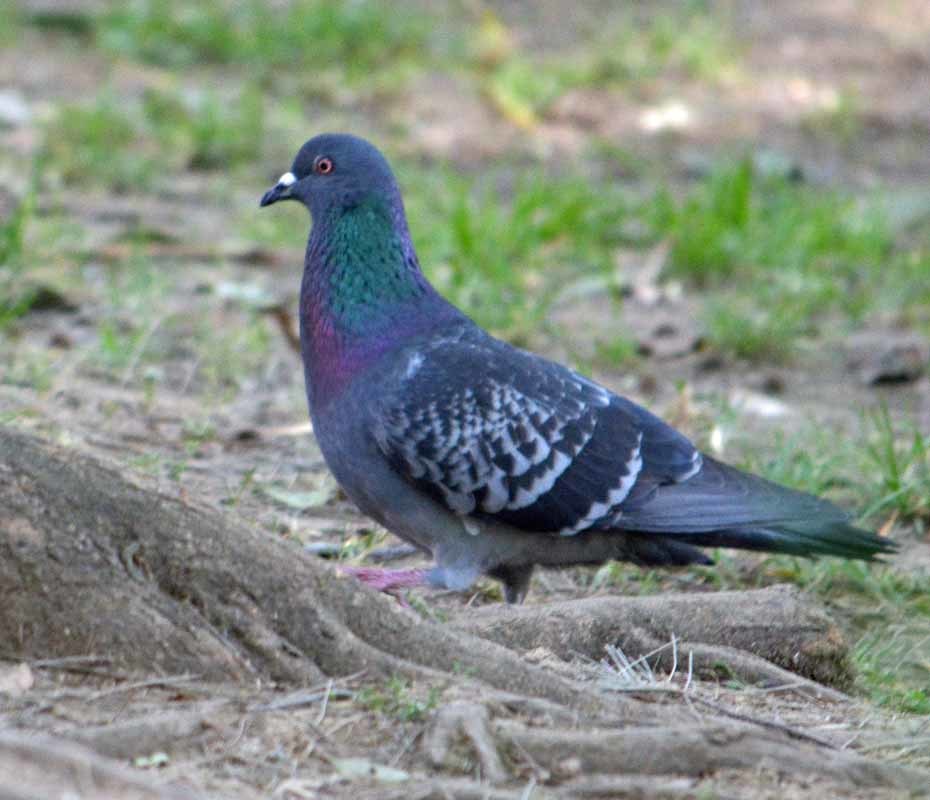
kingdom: Animalia
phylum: Chordata
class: Aves
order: Columbiformes
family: Columbidae
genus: Columba
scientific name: Columba livia
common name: Rock pigeon
